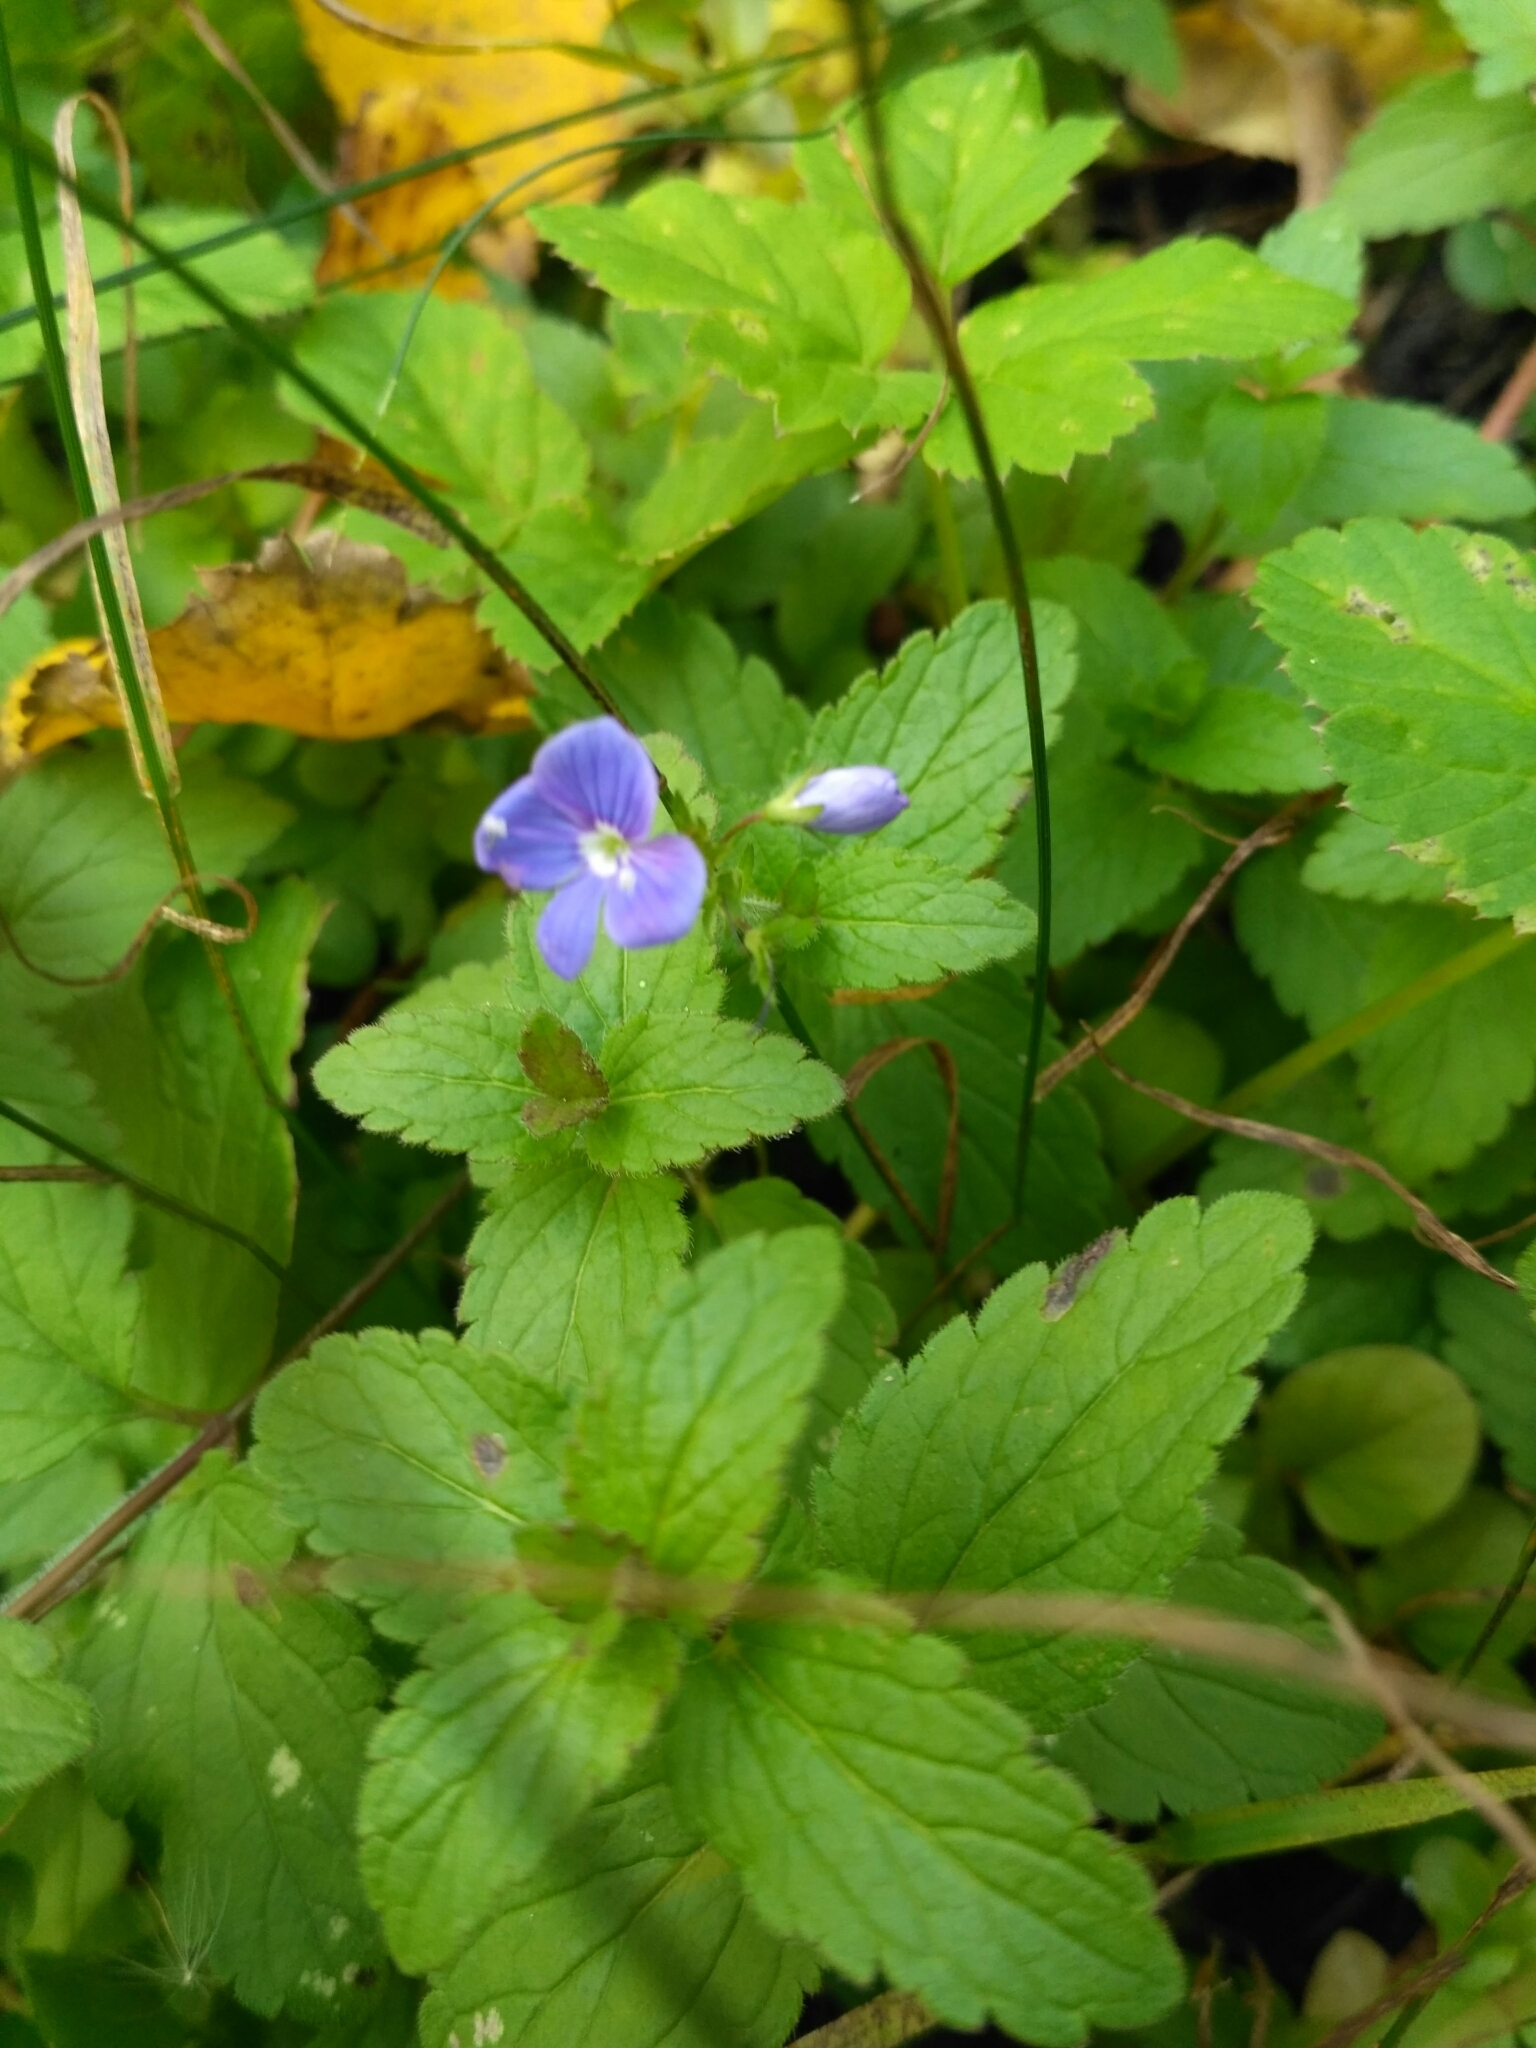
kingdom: Plantae
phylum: Tracheophyta
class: Magnoliopsida
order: Lamiales
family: Plantaginaceae
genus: Veronica
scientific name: Veronica chamaedrys
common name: Germander speedwell
